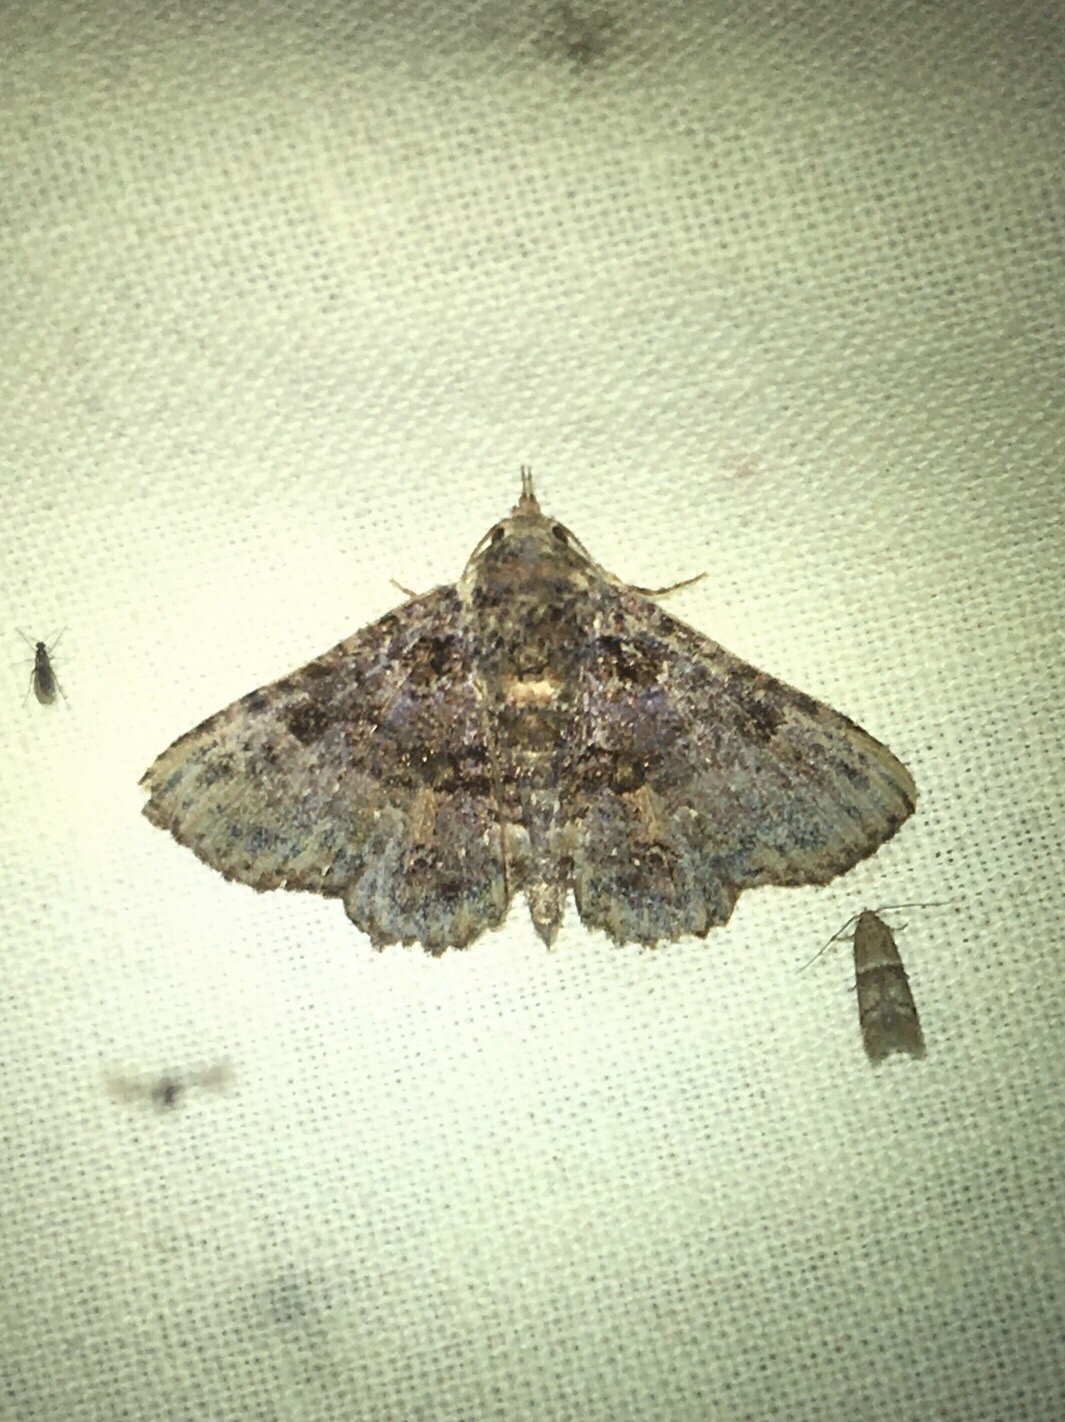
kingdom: Animalia
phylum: Arthropoda
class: Insecta
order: Lepidoptera
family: Erebidae
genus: Metalectra
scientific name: Metalectra discalis
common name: Common fungus moth
